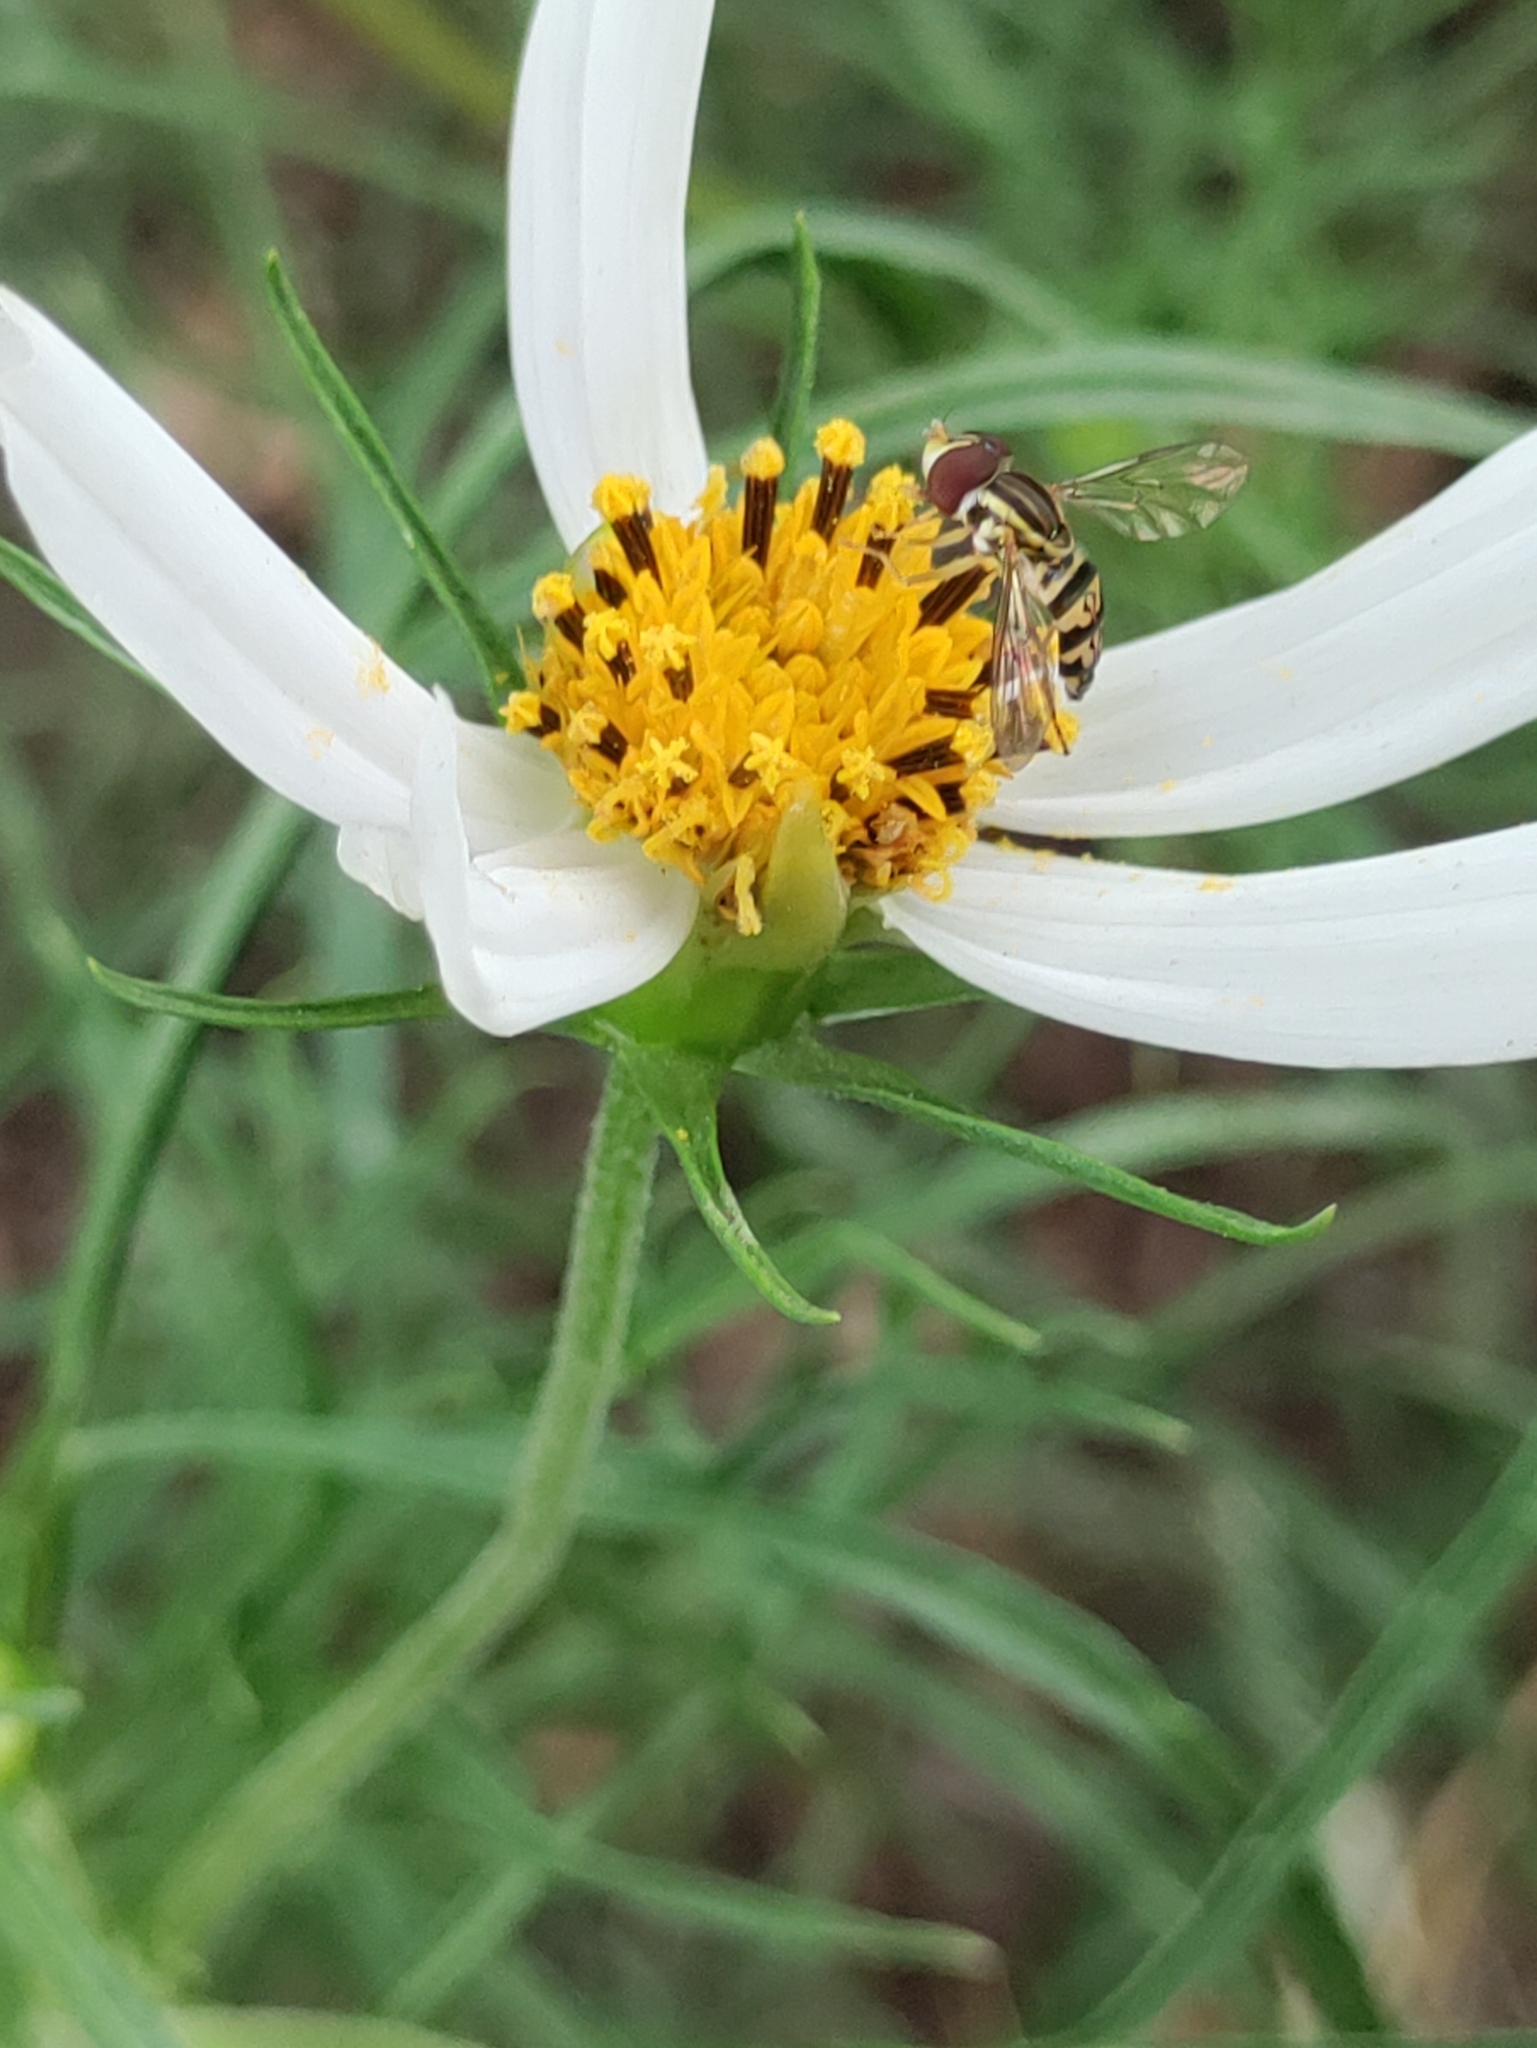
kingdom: Animalia
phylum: Arthropoda
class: Insecta
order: Diptera
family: Syrphidae
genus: Toxomerus
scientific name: Toxomerus geminatus
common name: Eastern calligrapher
